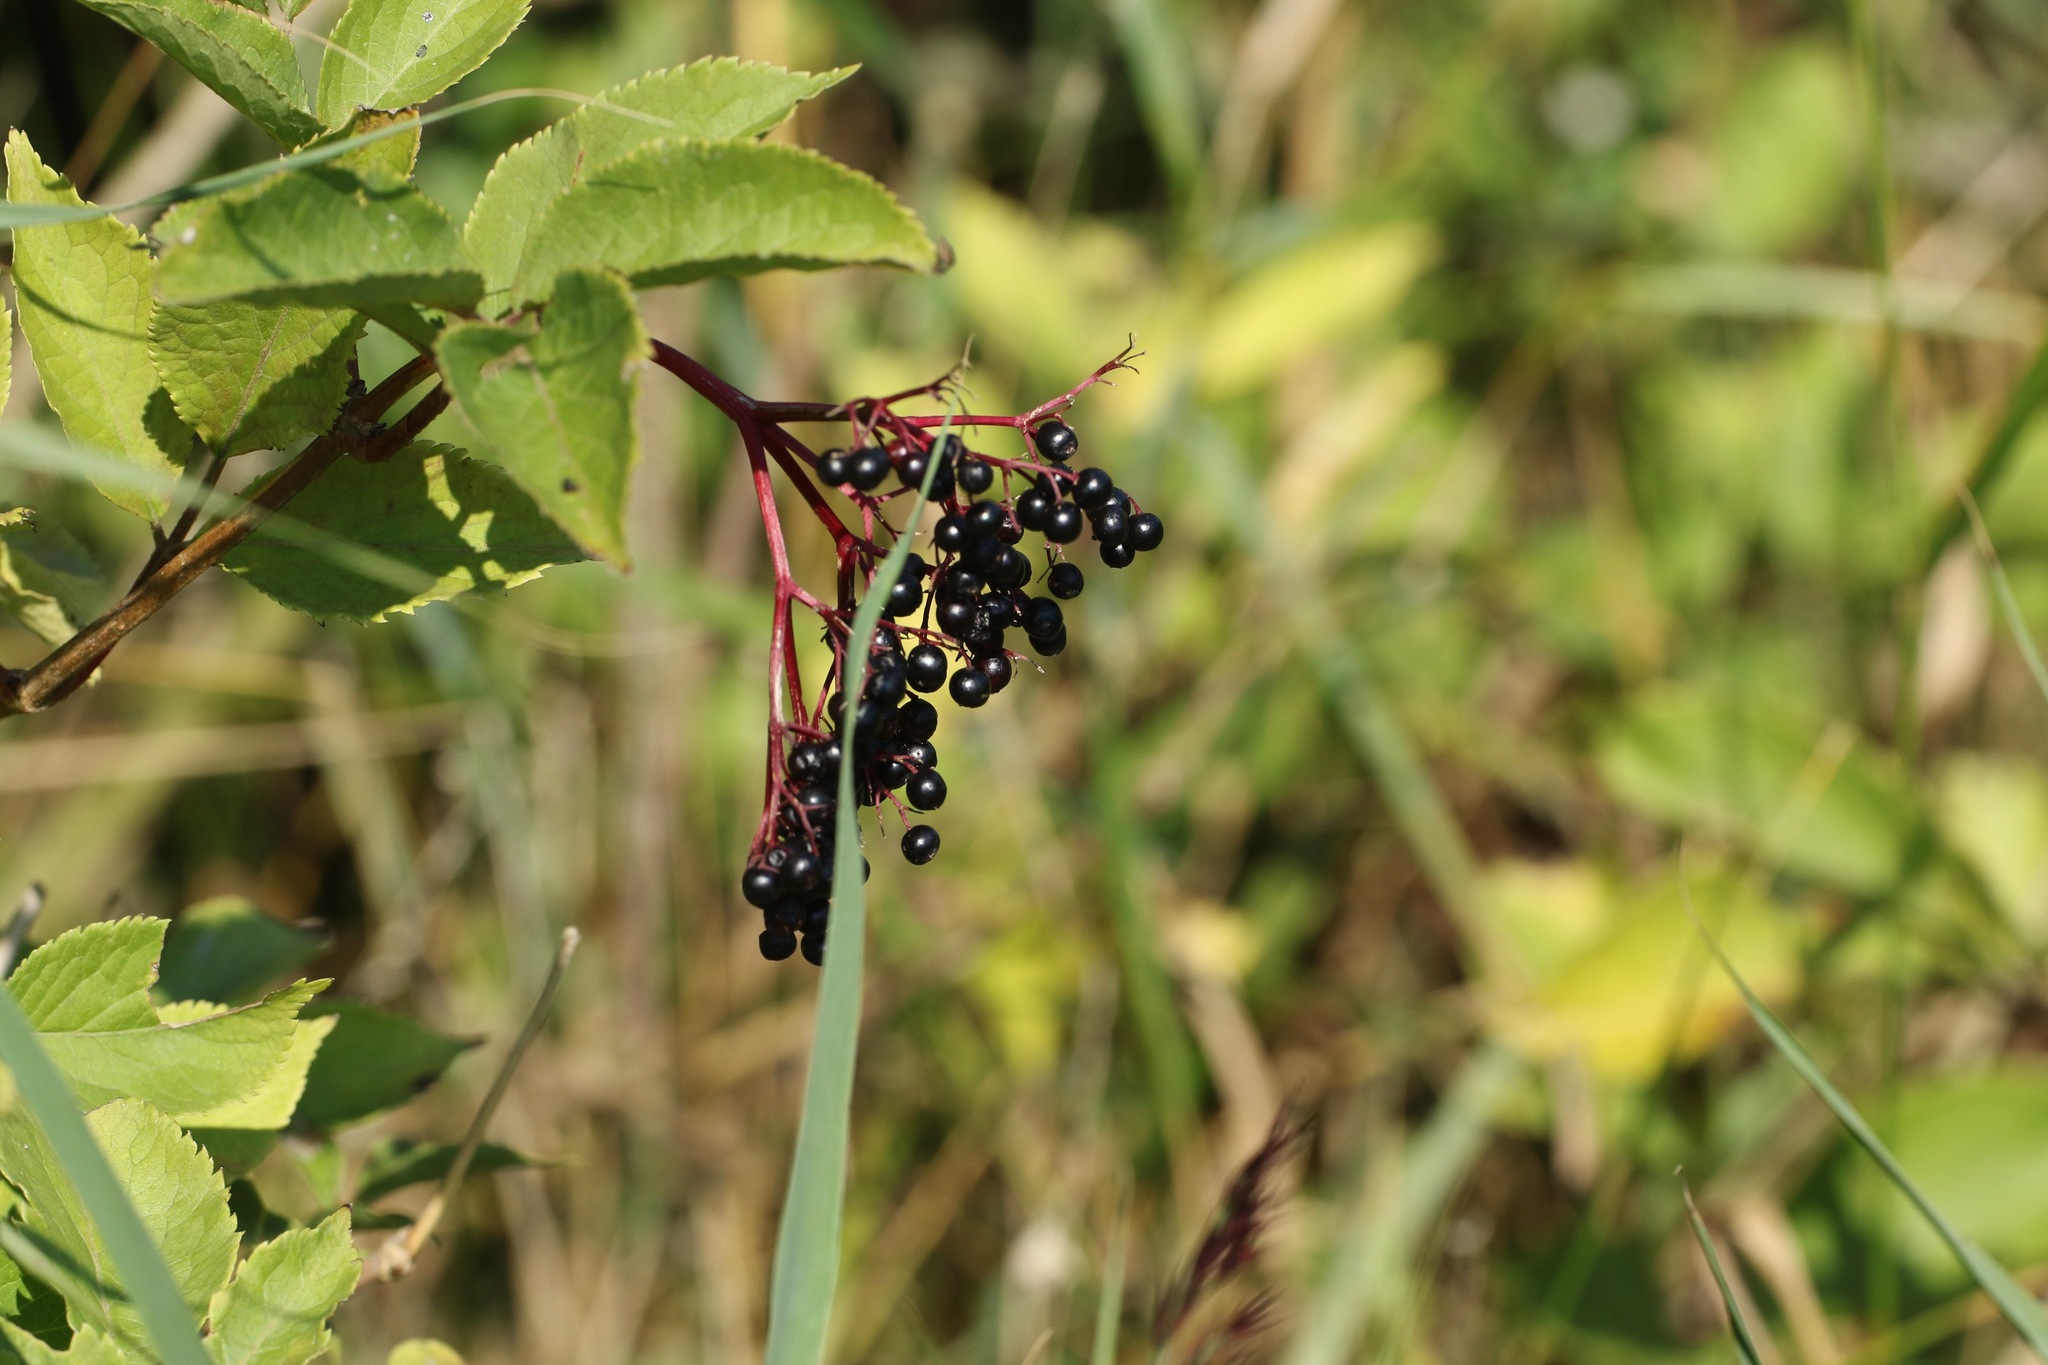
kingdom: Plantae
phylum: Tracheophyta
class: Magnoliopsida
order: Dipsacales
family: Viburnaceae
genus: Sambucus
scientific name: Sambucus nigra
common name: Elder
